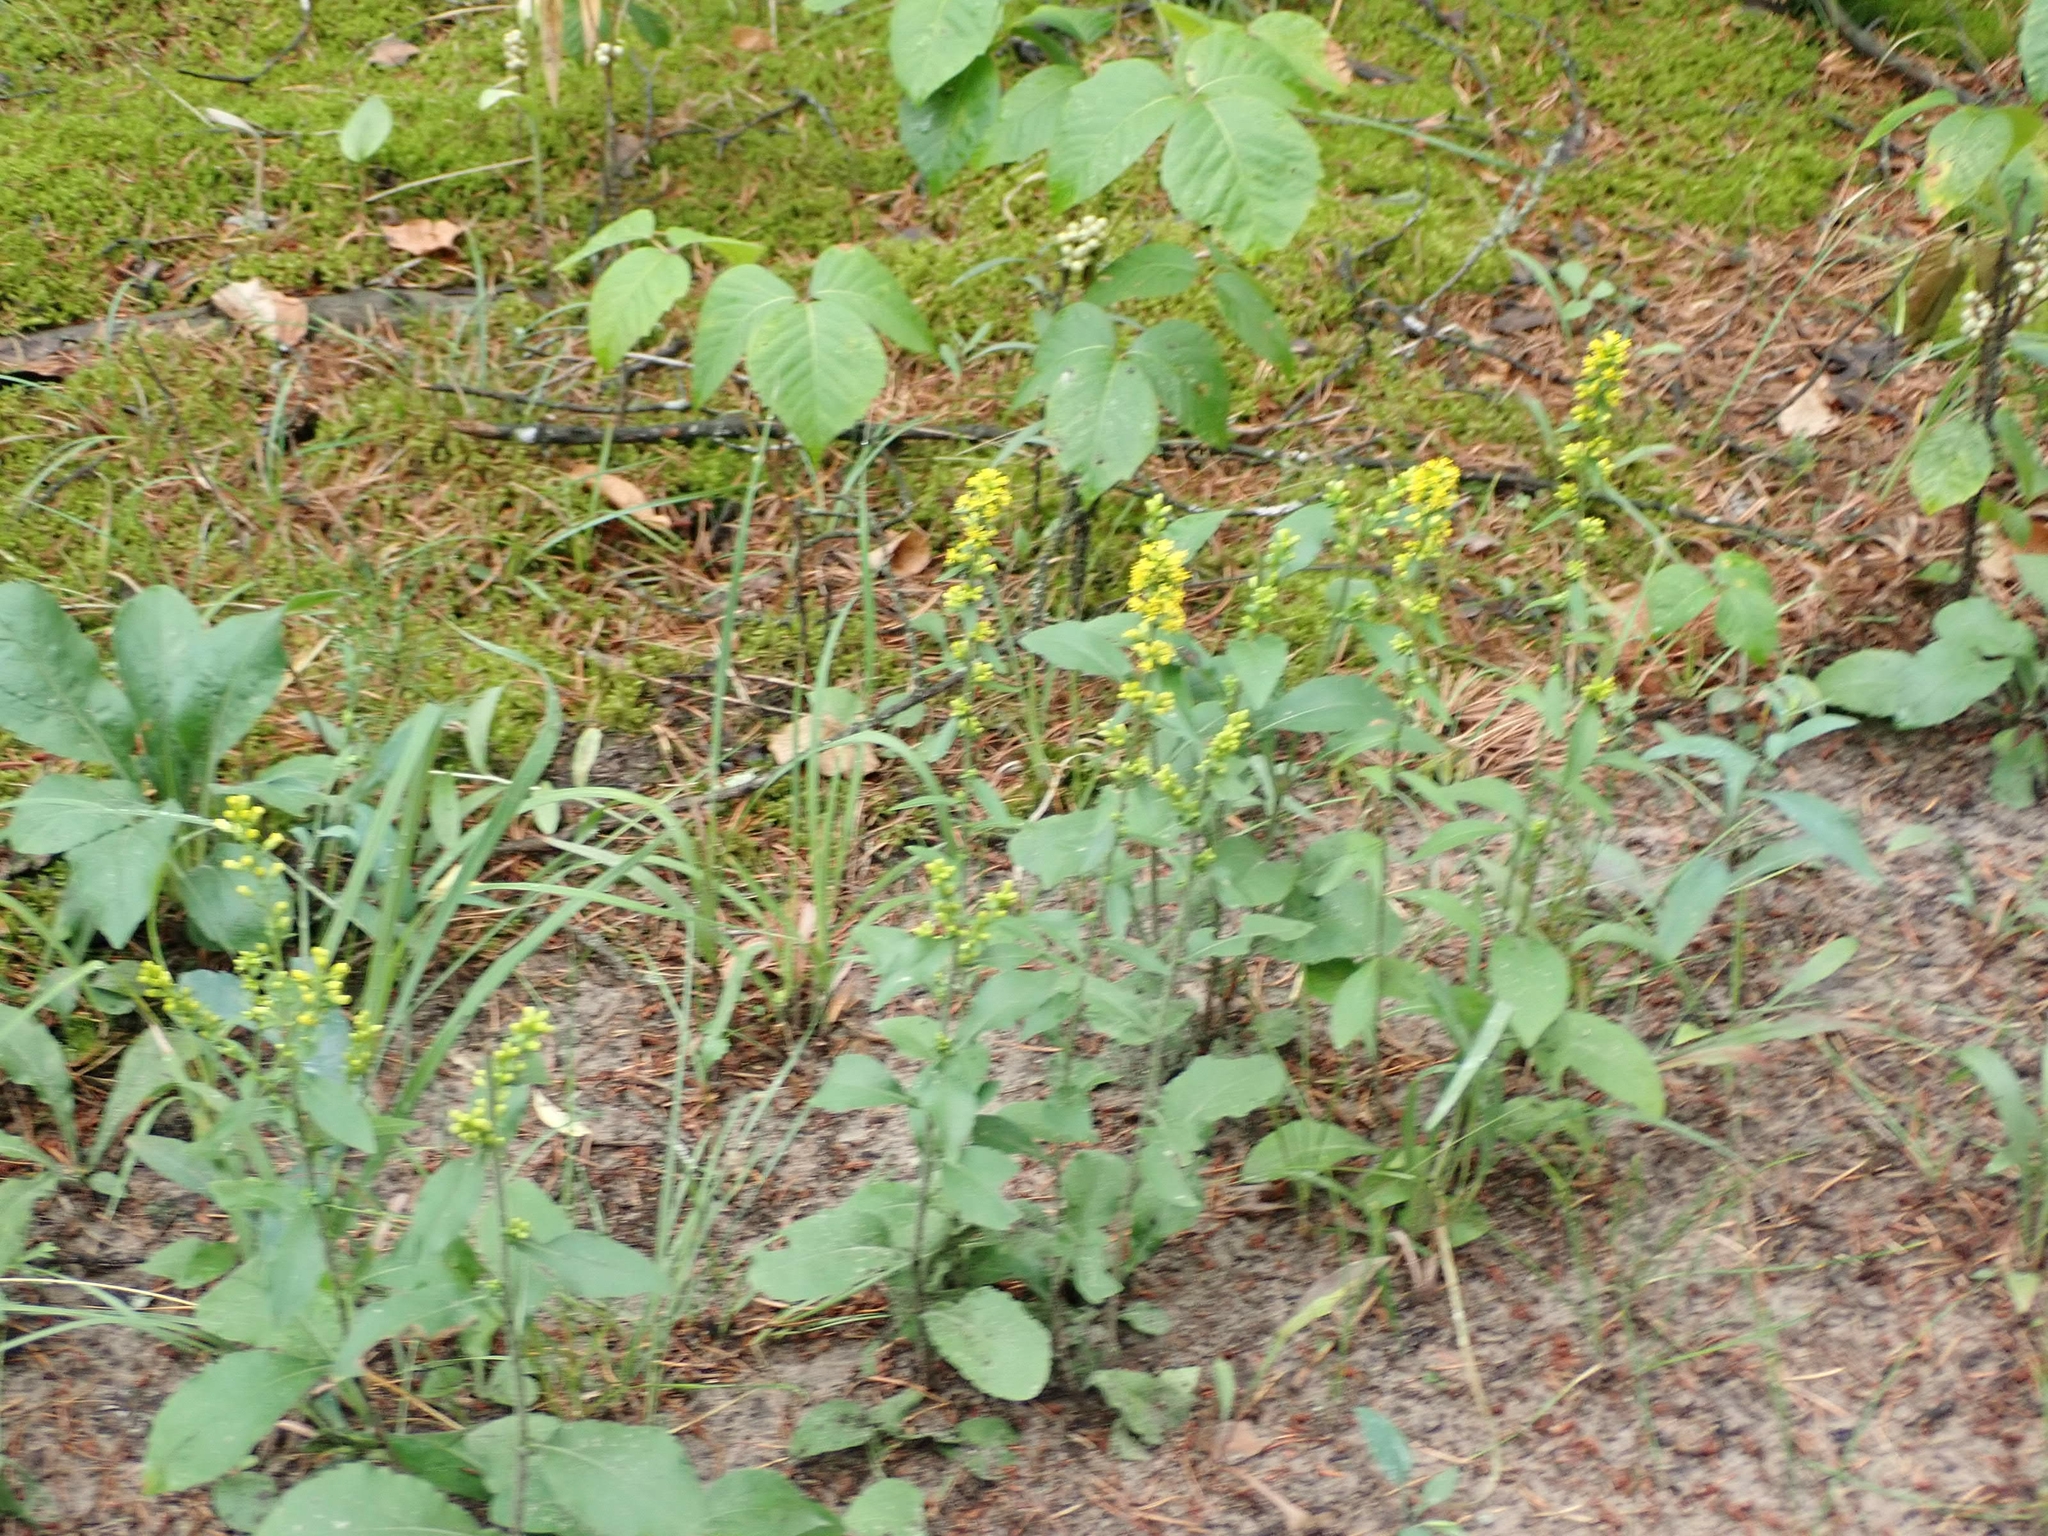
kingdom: Plantae
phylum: Tracheophyta
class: Magnoliopsida
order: Asterales
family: Asteraceae
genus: Solidago
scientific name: Solidago hispida
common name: Hairy goldenrod
